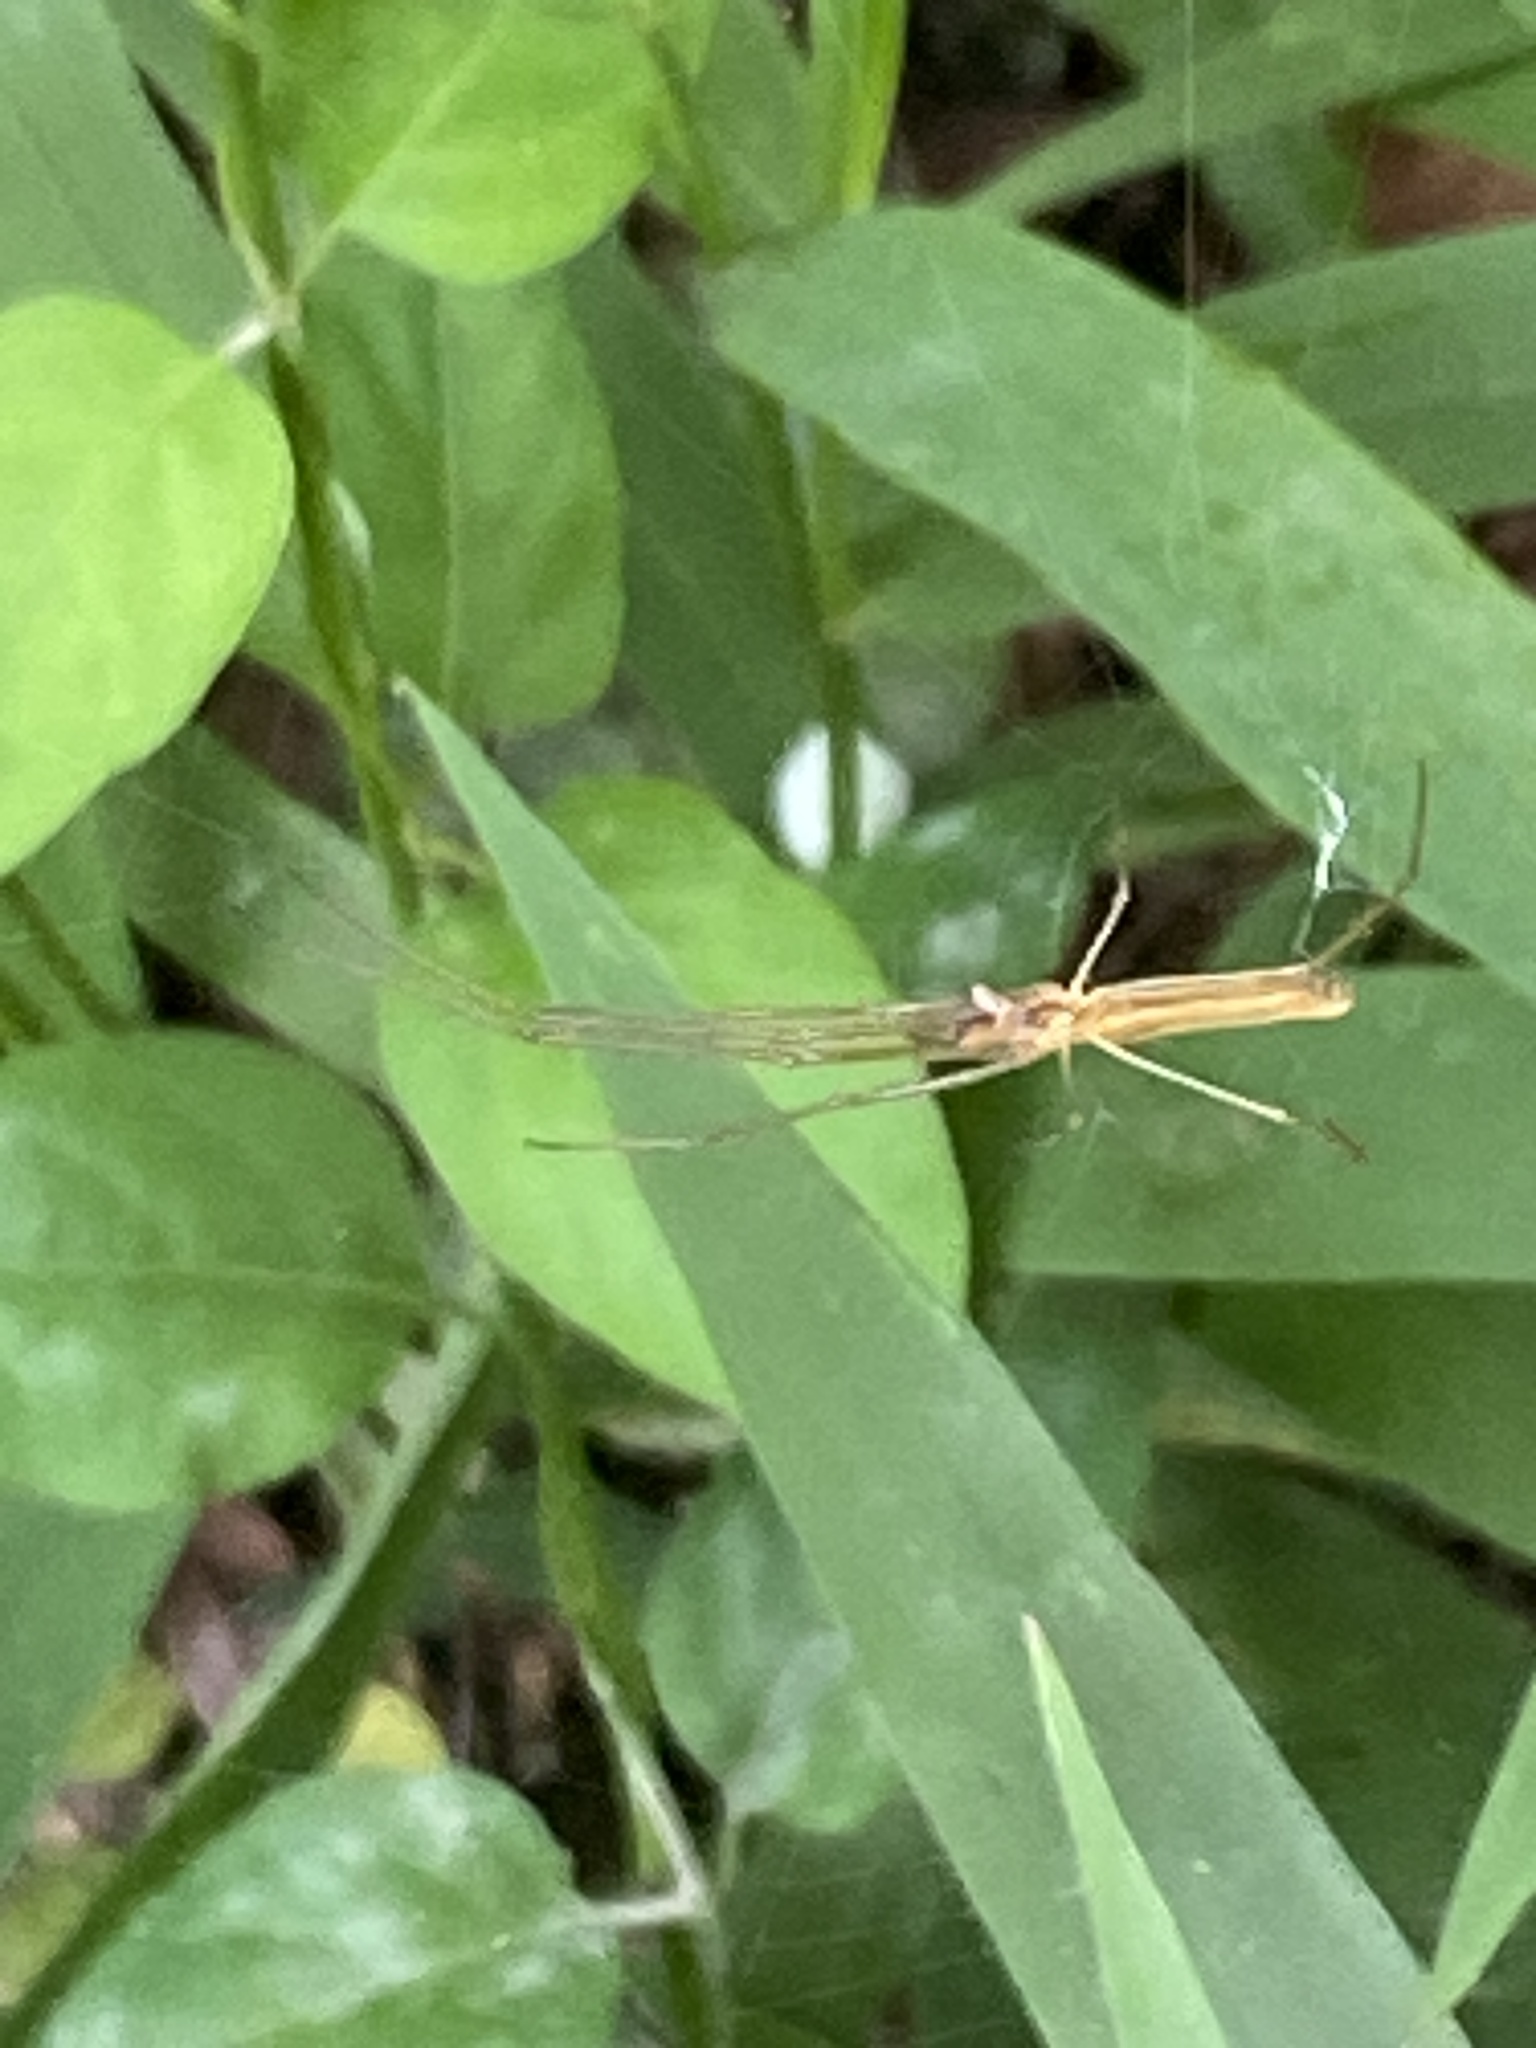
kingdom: Animalia
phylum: Arthropoda
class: Arachnida
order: Araneae
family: Tetragnathidae
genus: Tetragnatha
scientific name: Tetragnatha
